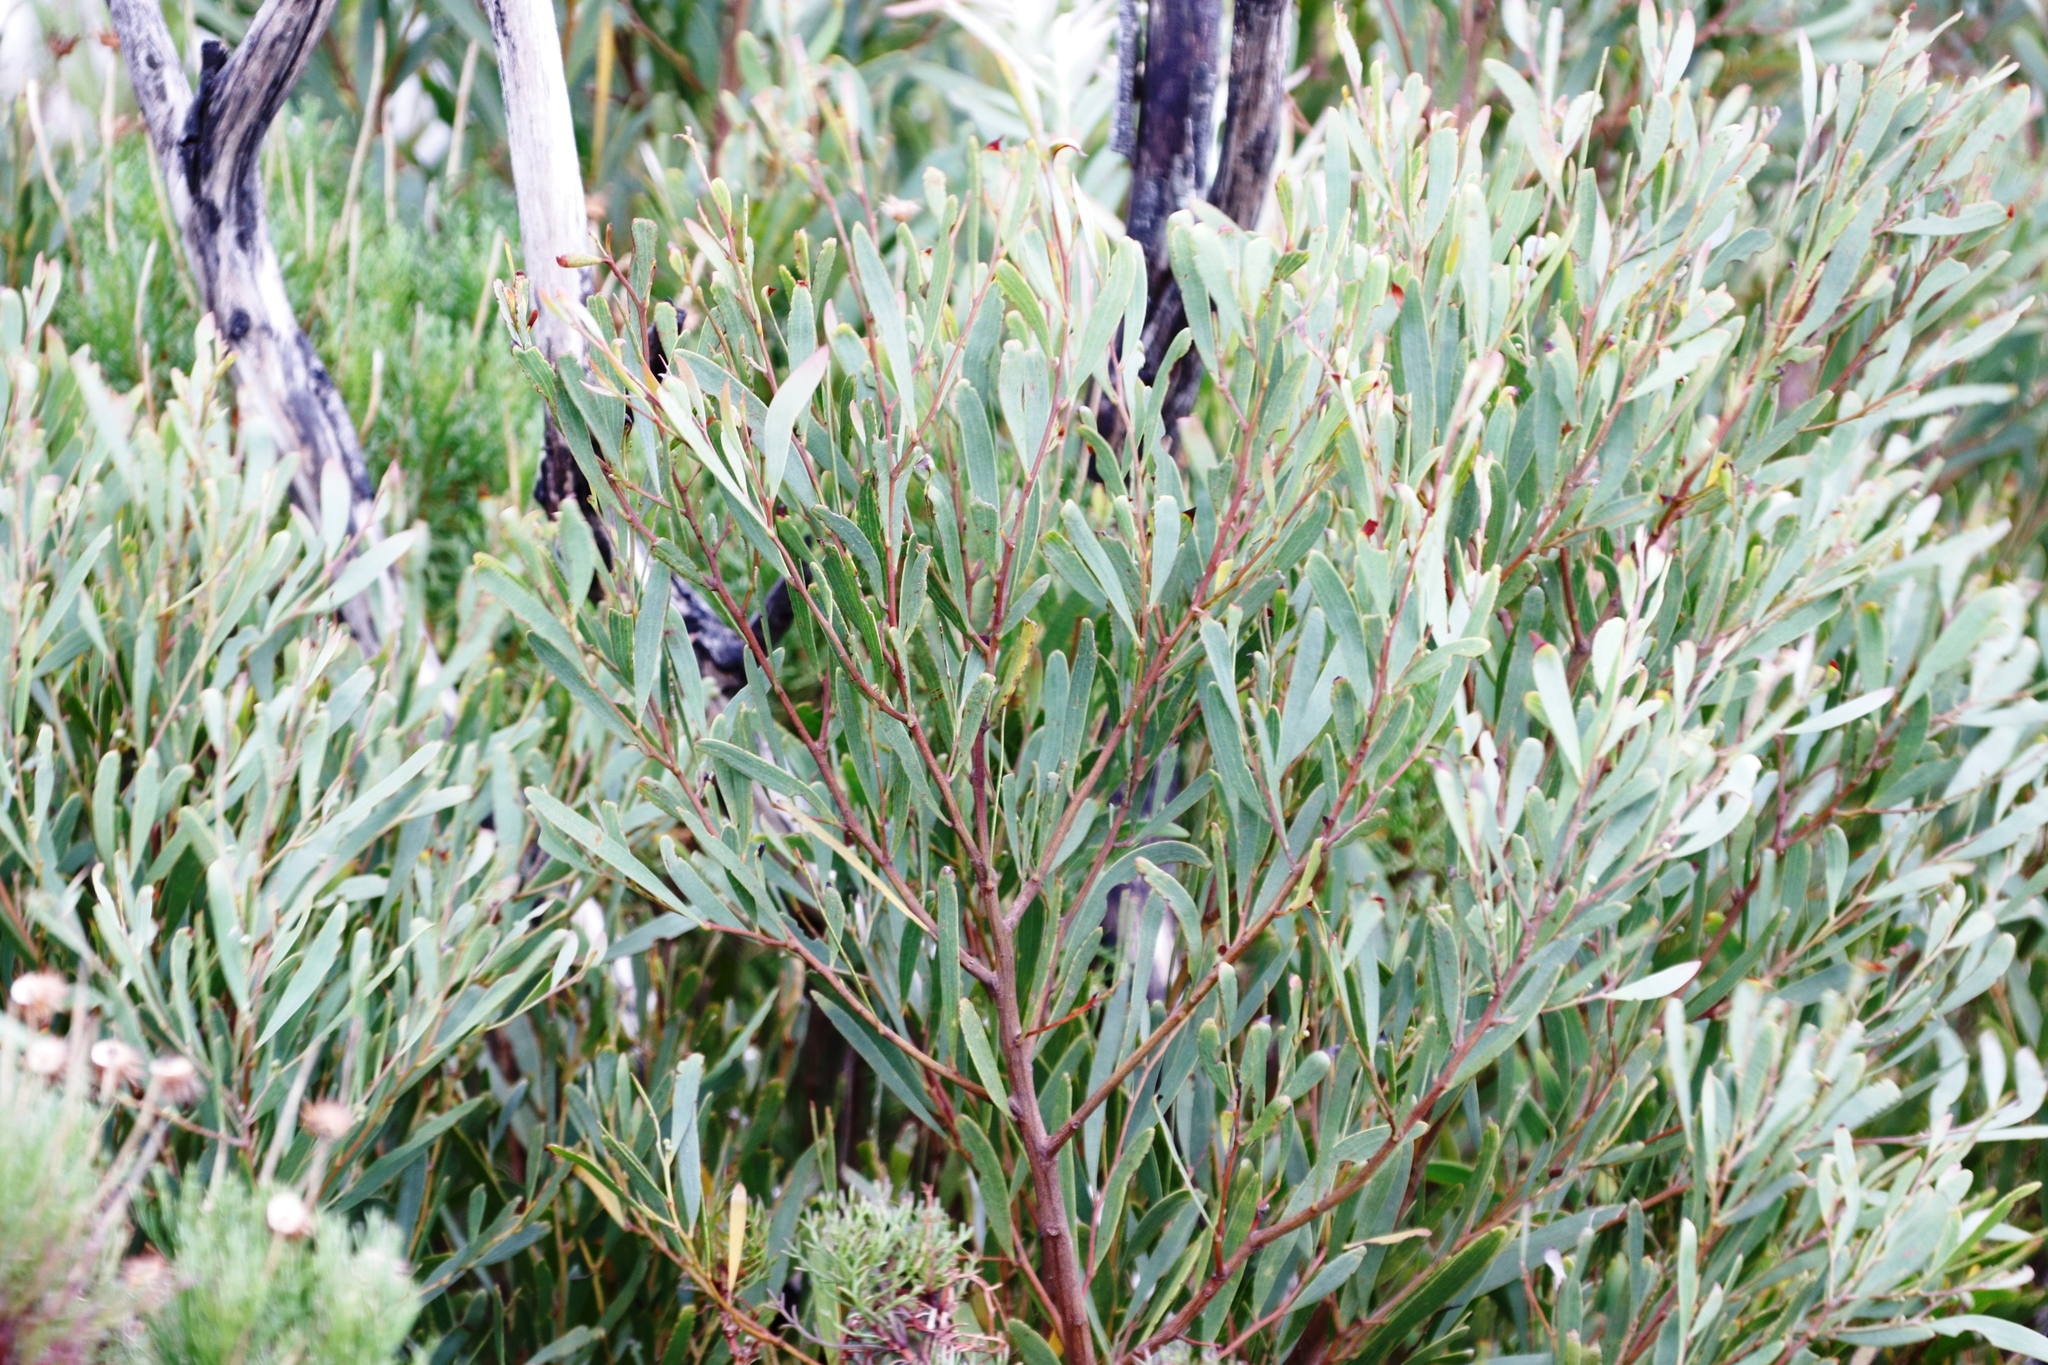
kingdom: Plantae
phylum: Tracheophyta
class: Magnoliopsida
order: Fabales
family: Fabaceae
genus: Acacia
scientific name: Acacia cyclops
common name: Coastal wattle
